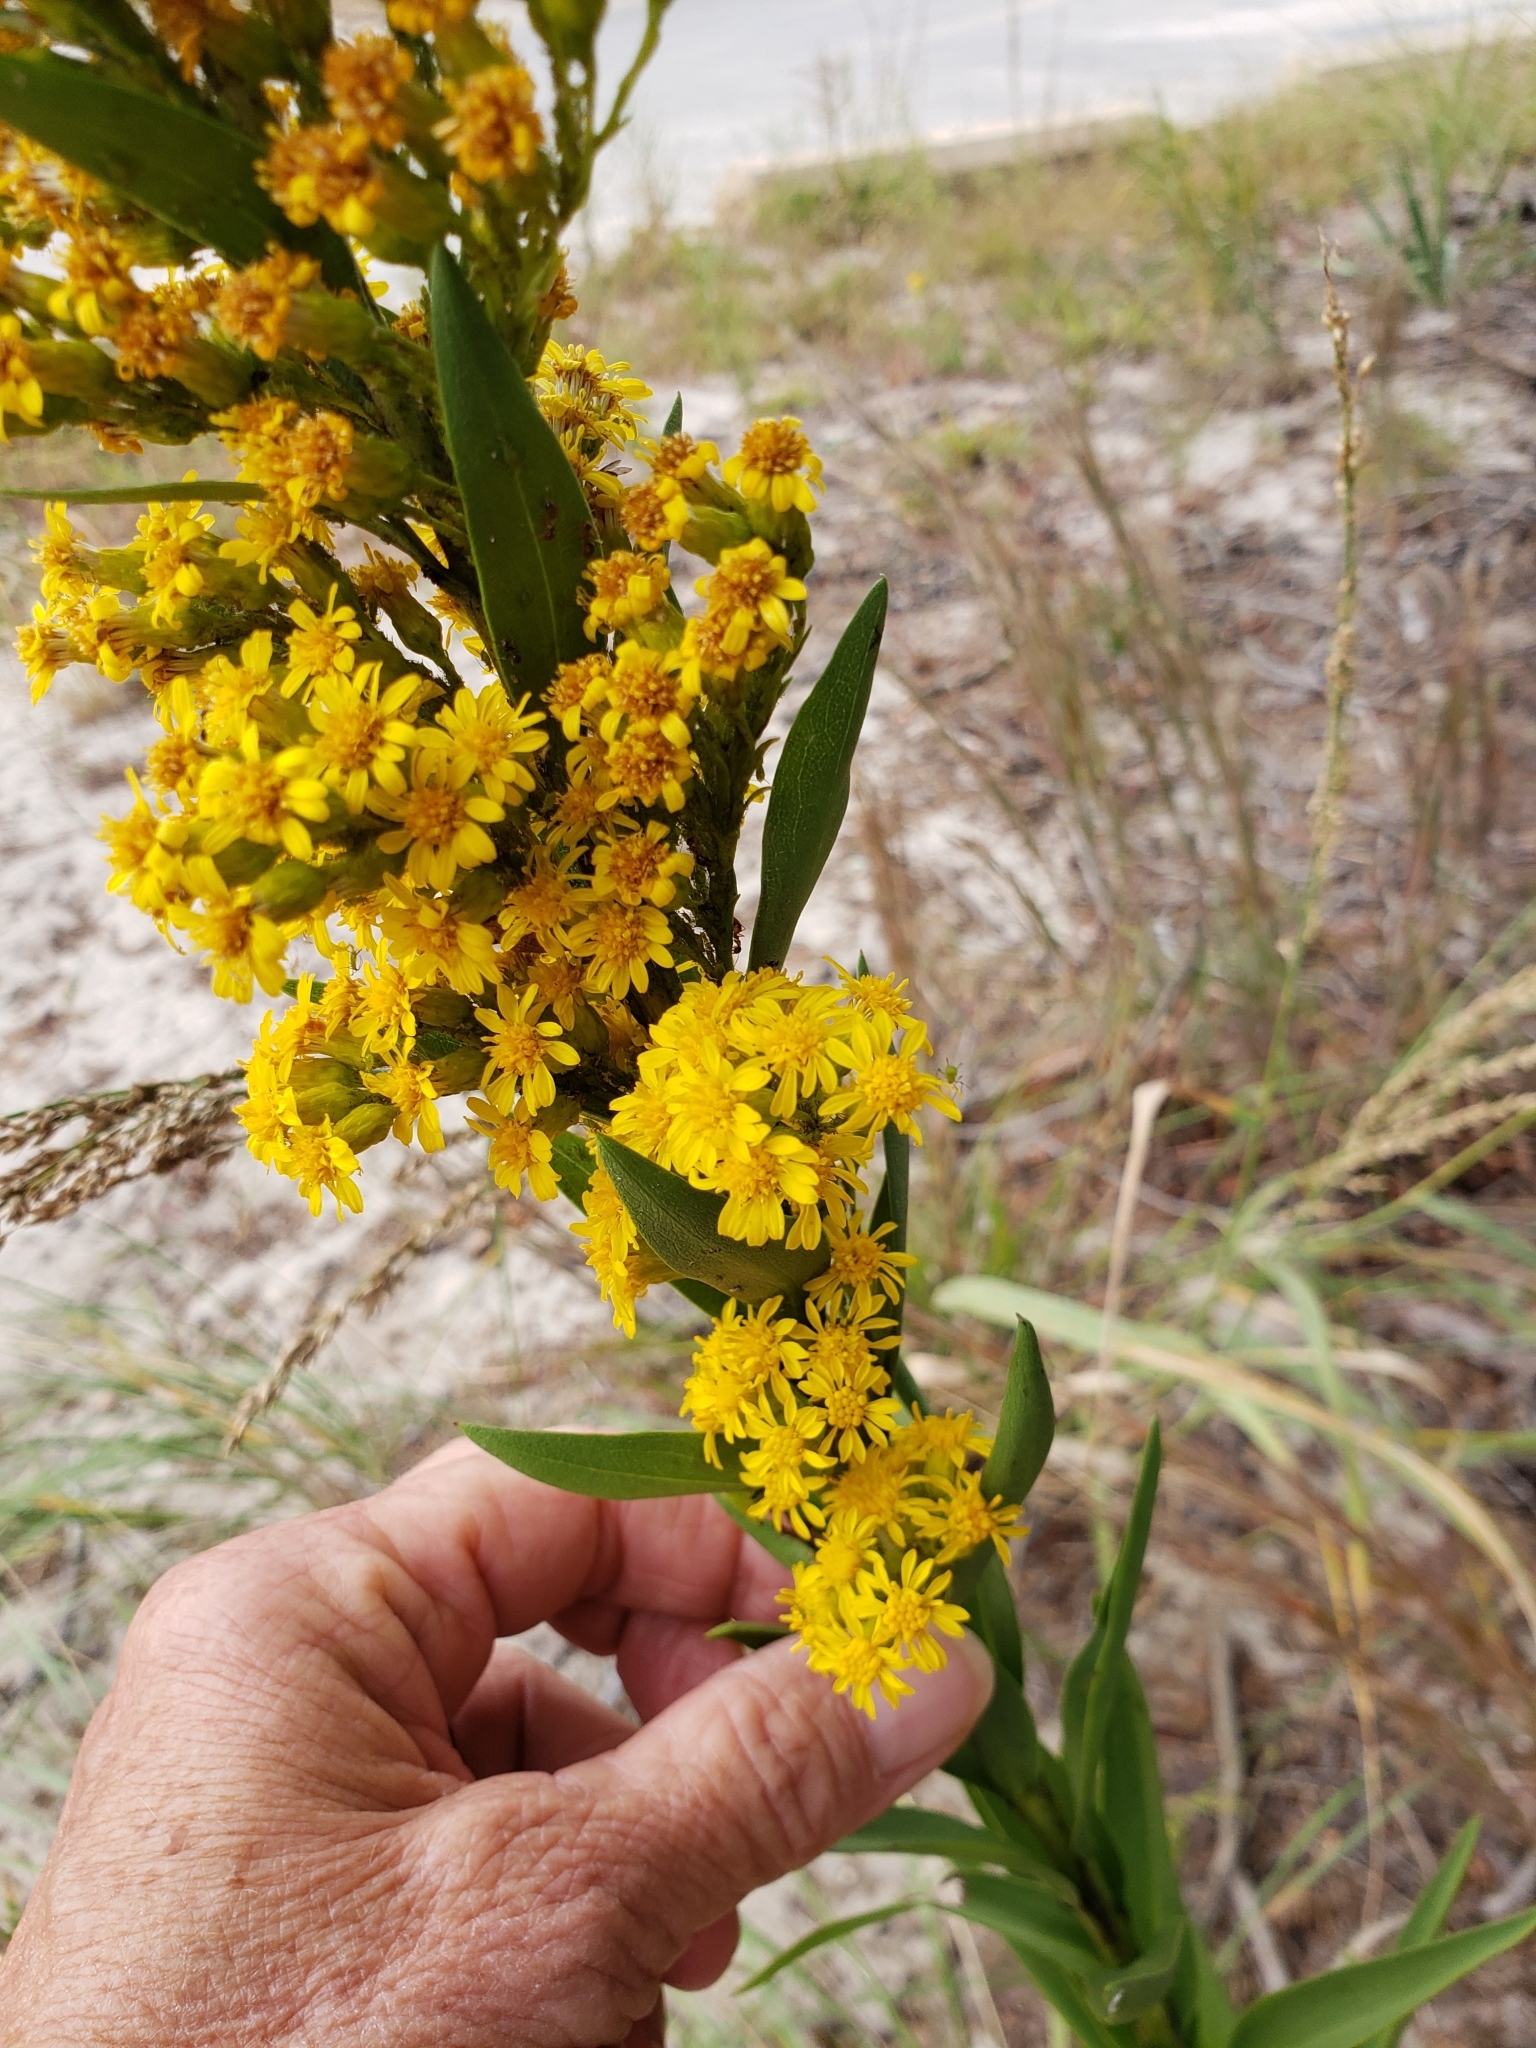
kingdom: Plantae
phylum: Tracheophyta
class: Magnoliopsida
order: Asterales
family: Asteraceae
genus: Solidago
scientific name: Solidago sempervirens
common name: Salt-marsh goldenrod
